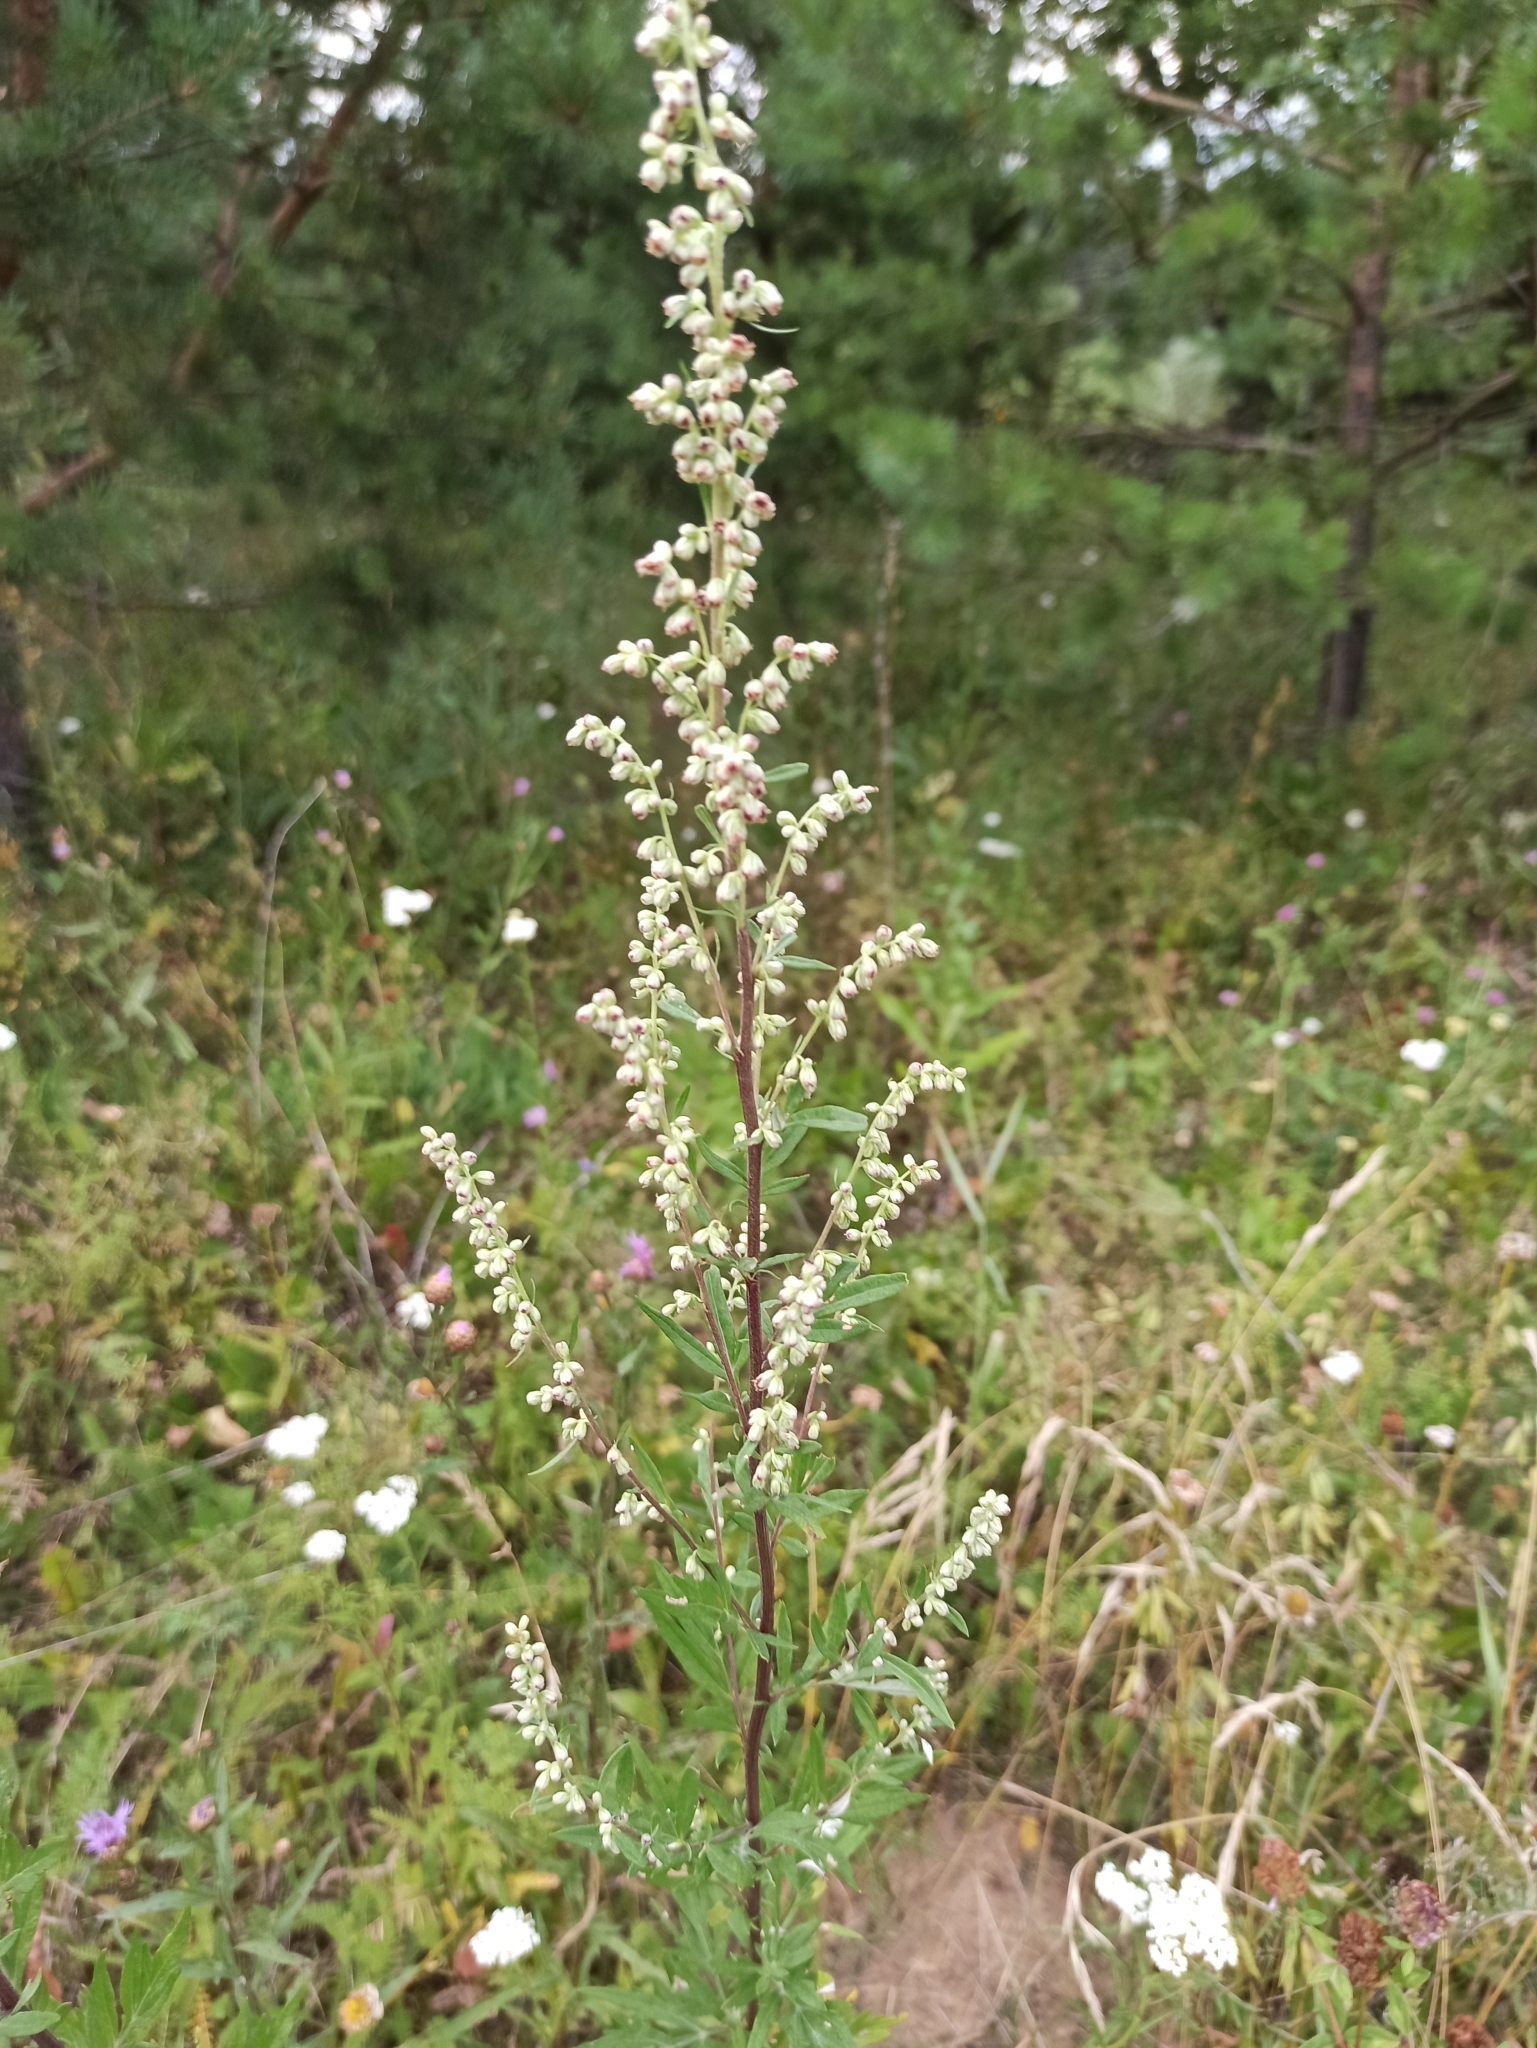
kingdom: Plantae
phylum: Tracheophyta
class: Magnoliopsida
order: Asterales
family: Asteraceae
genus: Artemisia
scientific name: Artemisia vulgaris
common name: Mugwort
